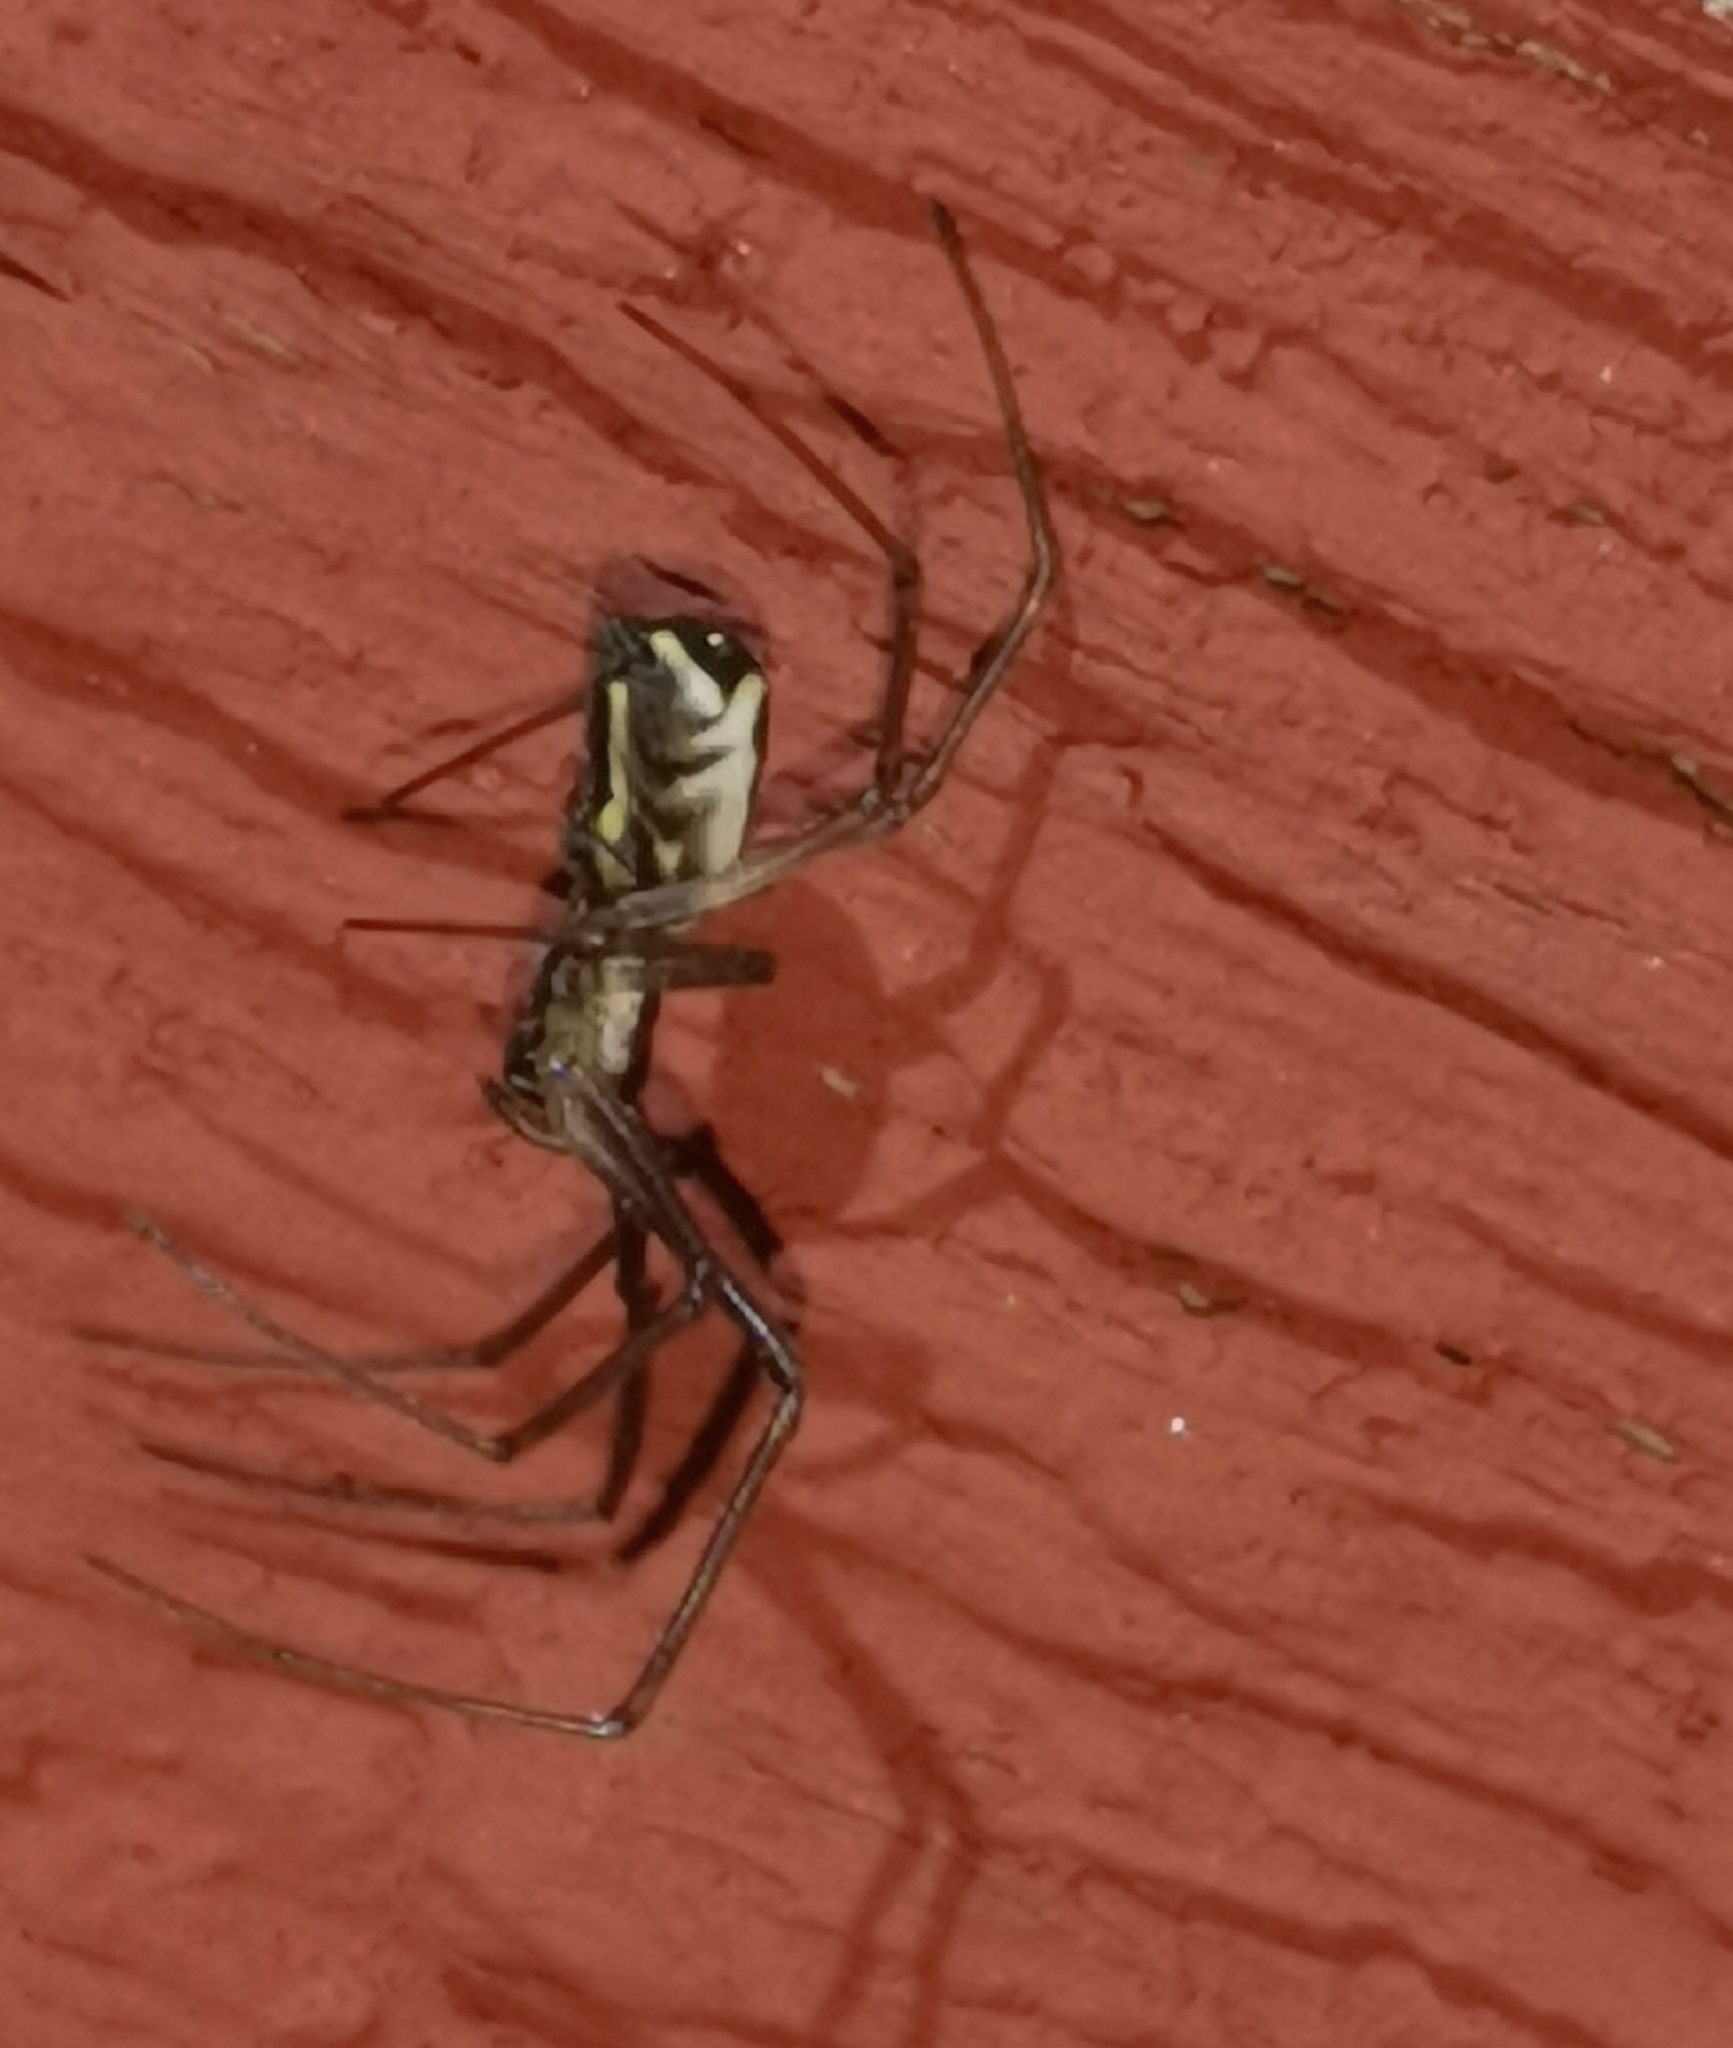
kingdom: Animalia
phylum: Arthropoda
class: Arachnida
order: Araneae
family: Linyphiidae
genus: Neriene
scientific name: Neriene radiata
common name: Filmy dome spider
